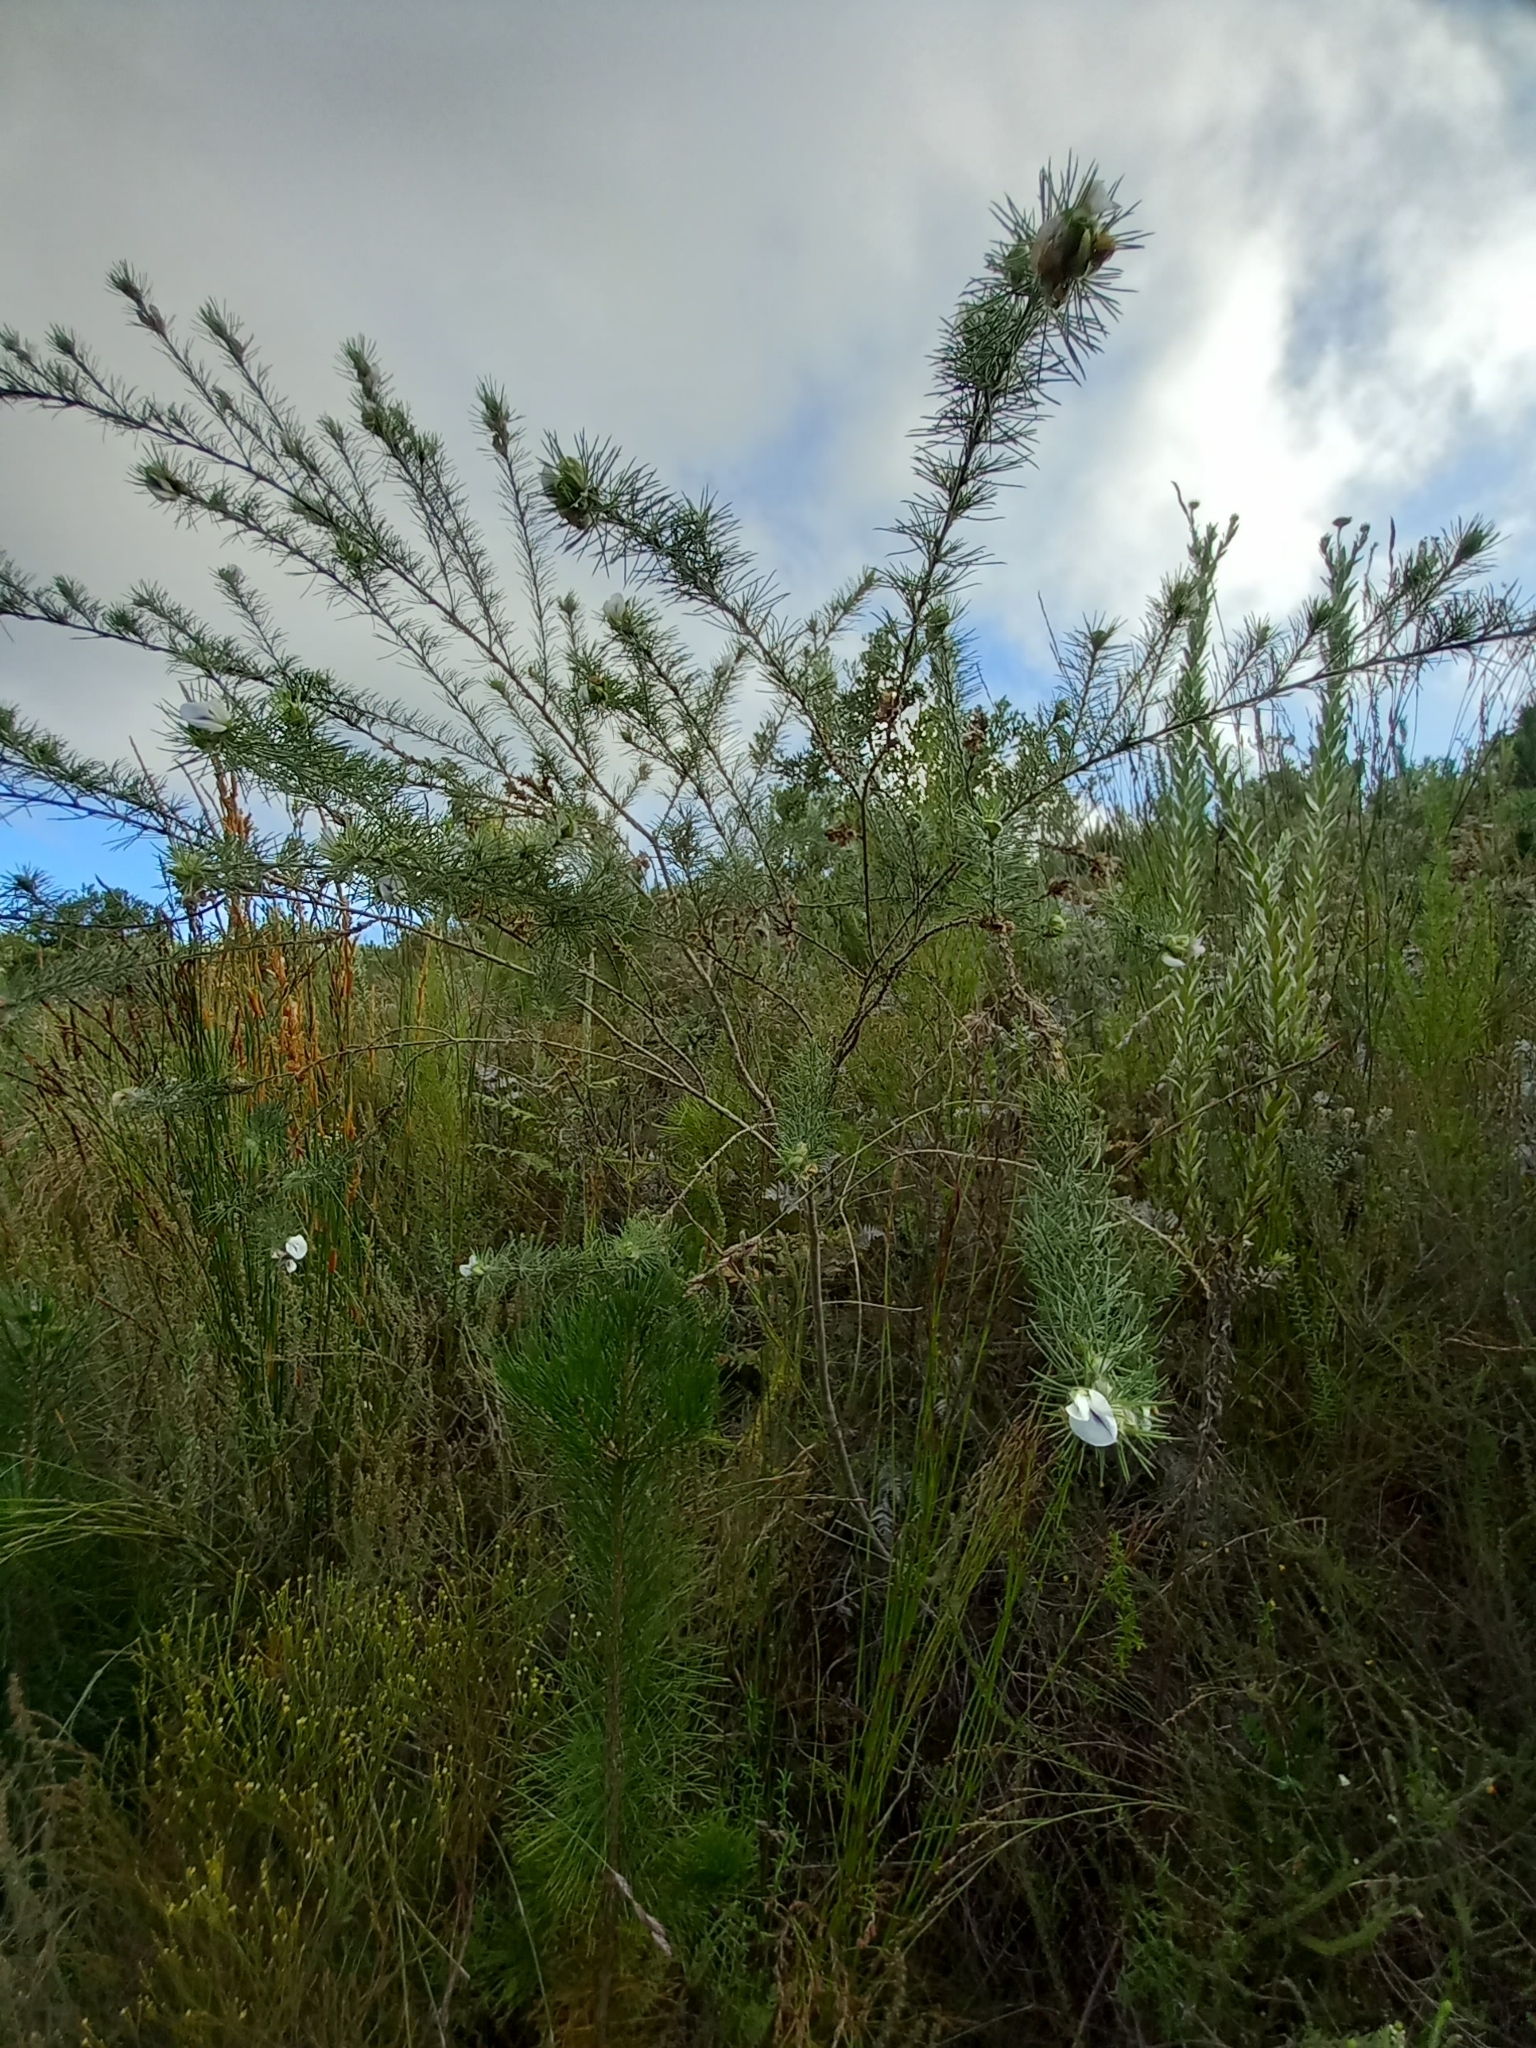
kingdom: Plantae
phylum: Tracheophyta
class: Magnoliopsida
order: Fabales
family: Fabaceae
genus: Psoralea
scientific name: Psoralea floccosa
